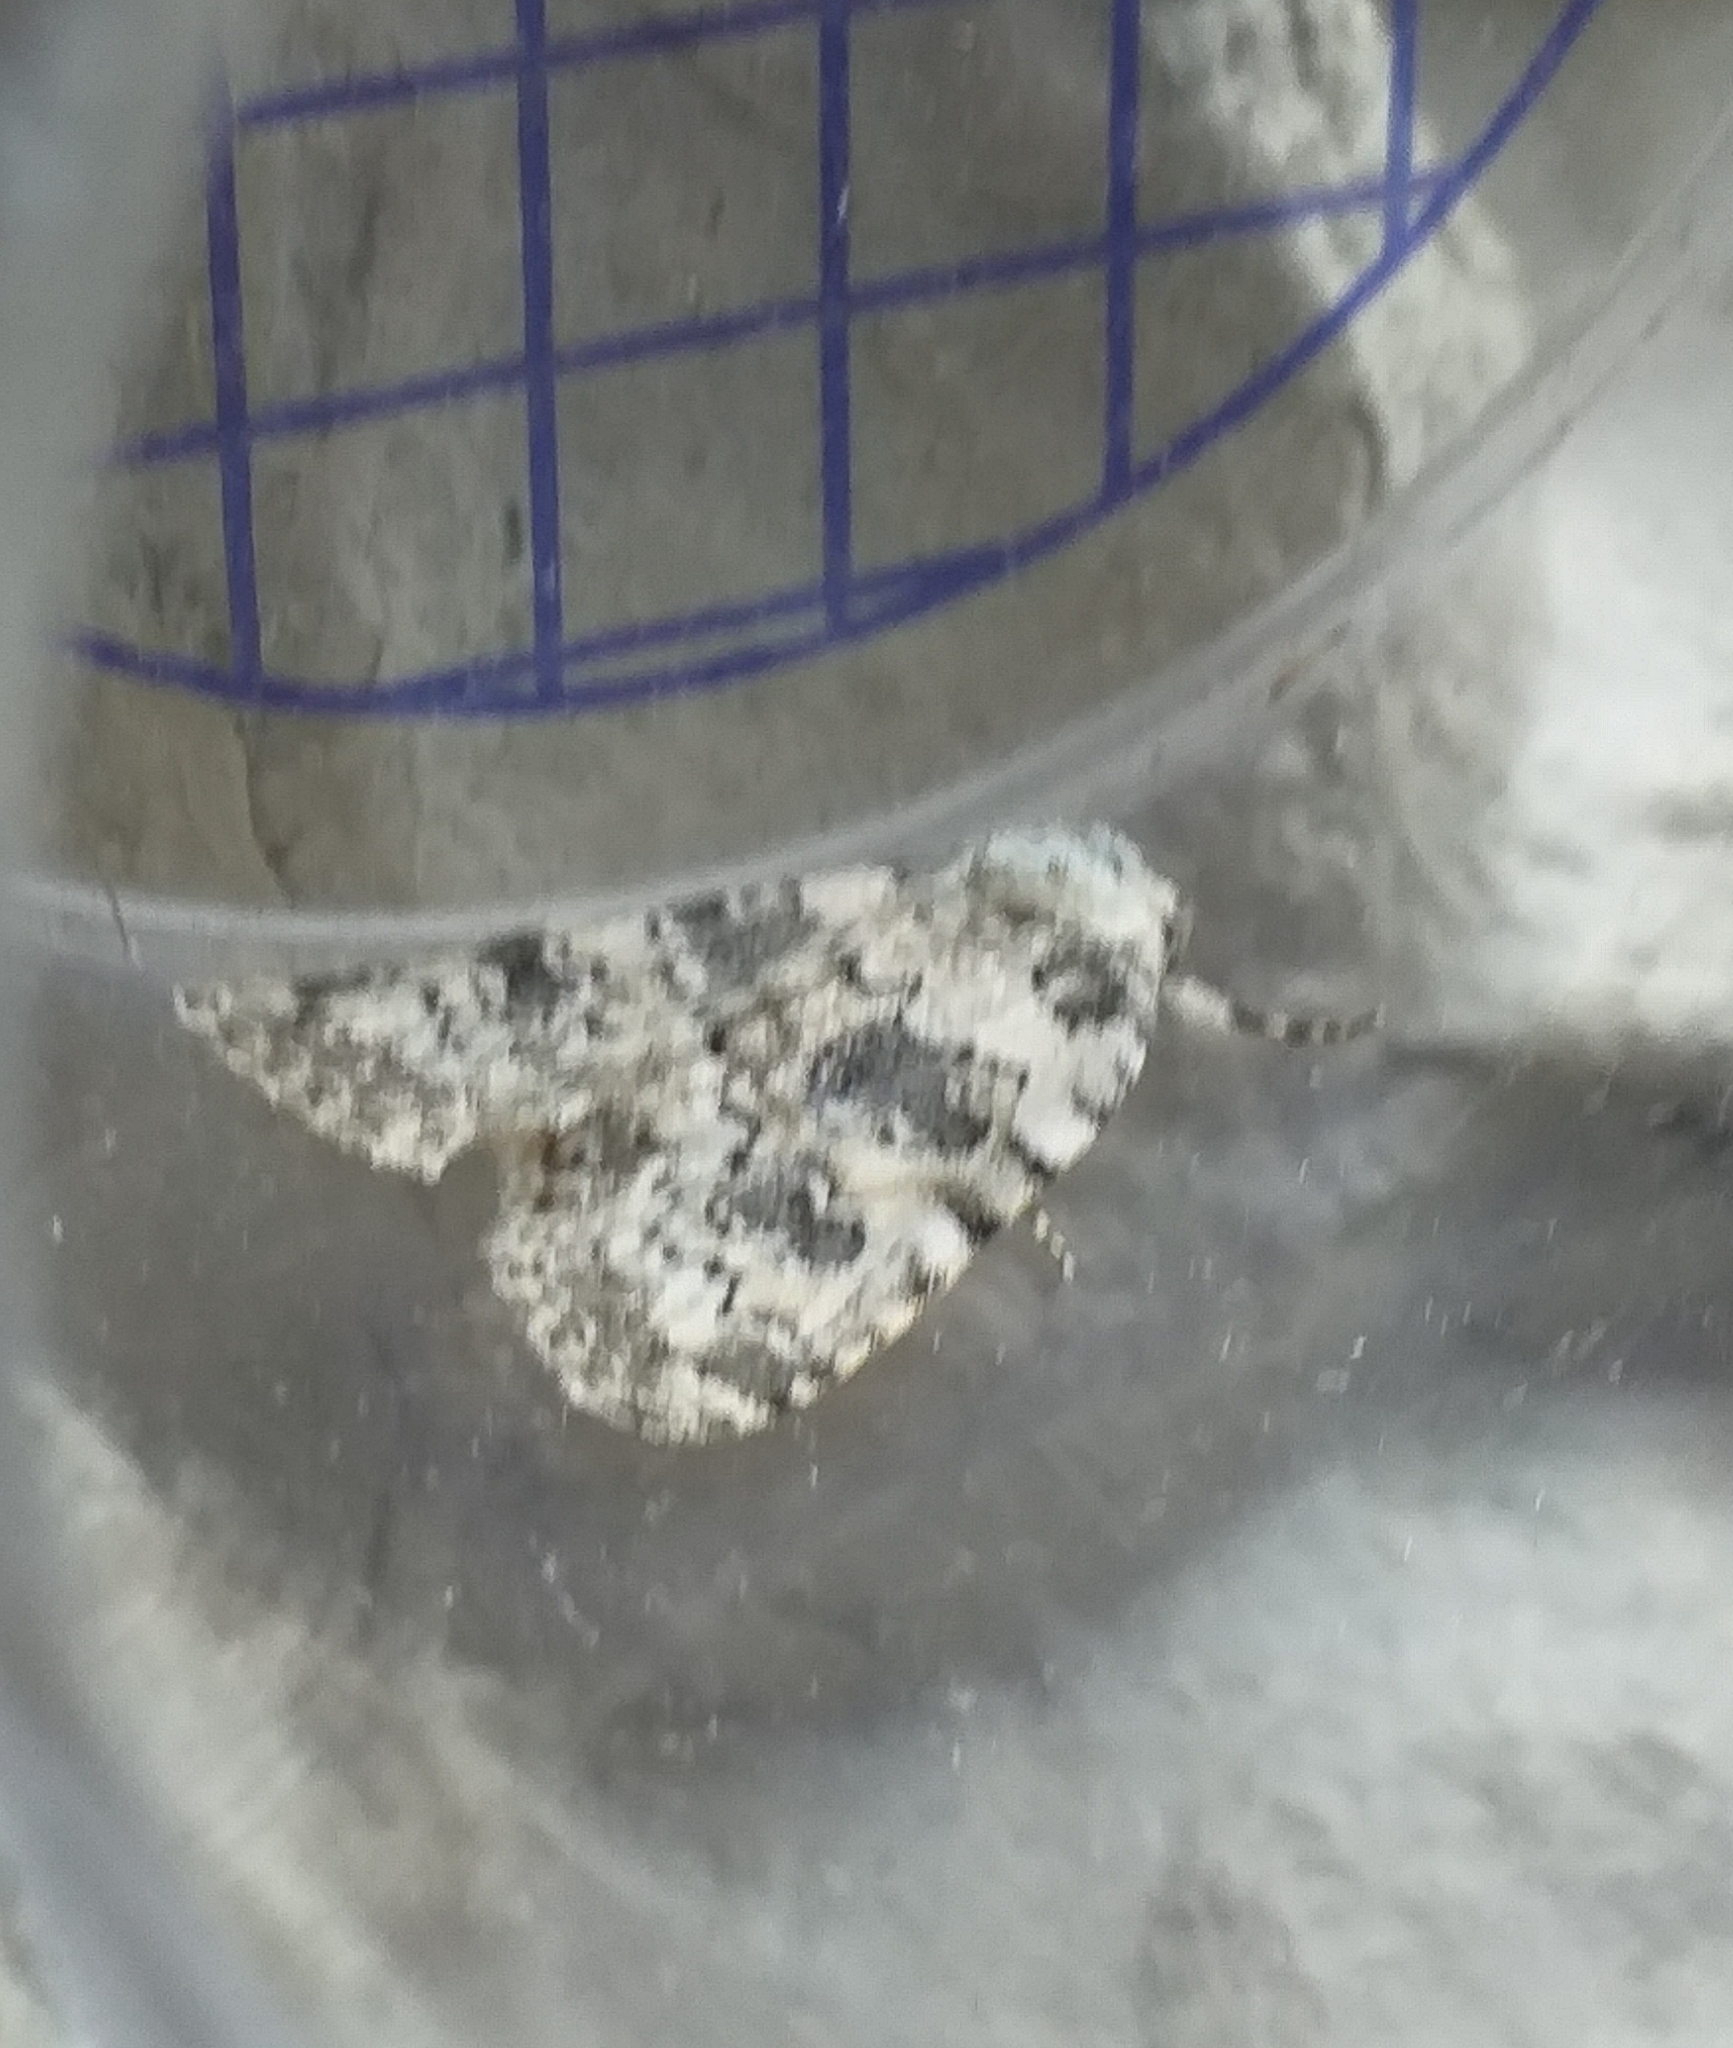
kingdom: Animalia
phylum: Arthropoda
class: Insecta
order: Lepidoptera
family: Noctuidae
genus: Bryophila
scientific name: Bryophila domestica
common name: Marbled beauty
